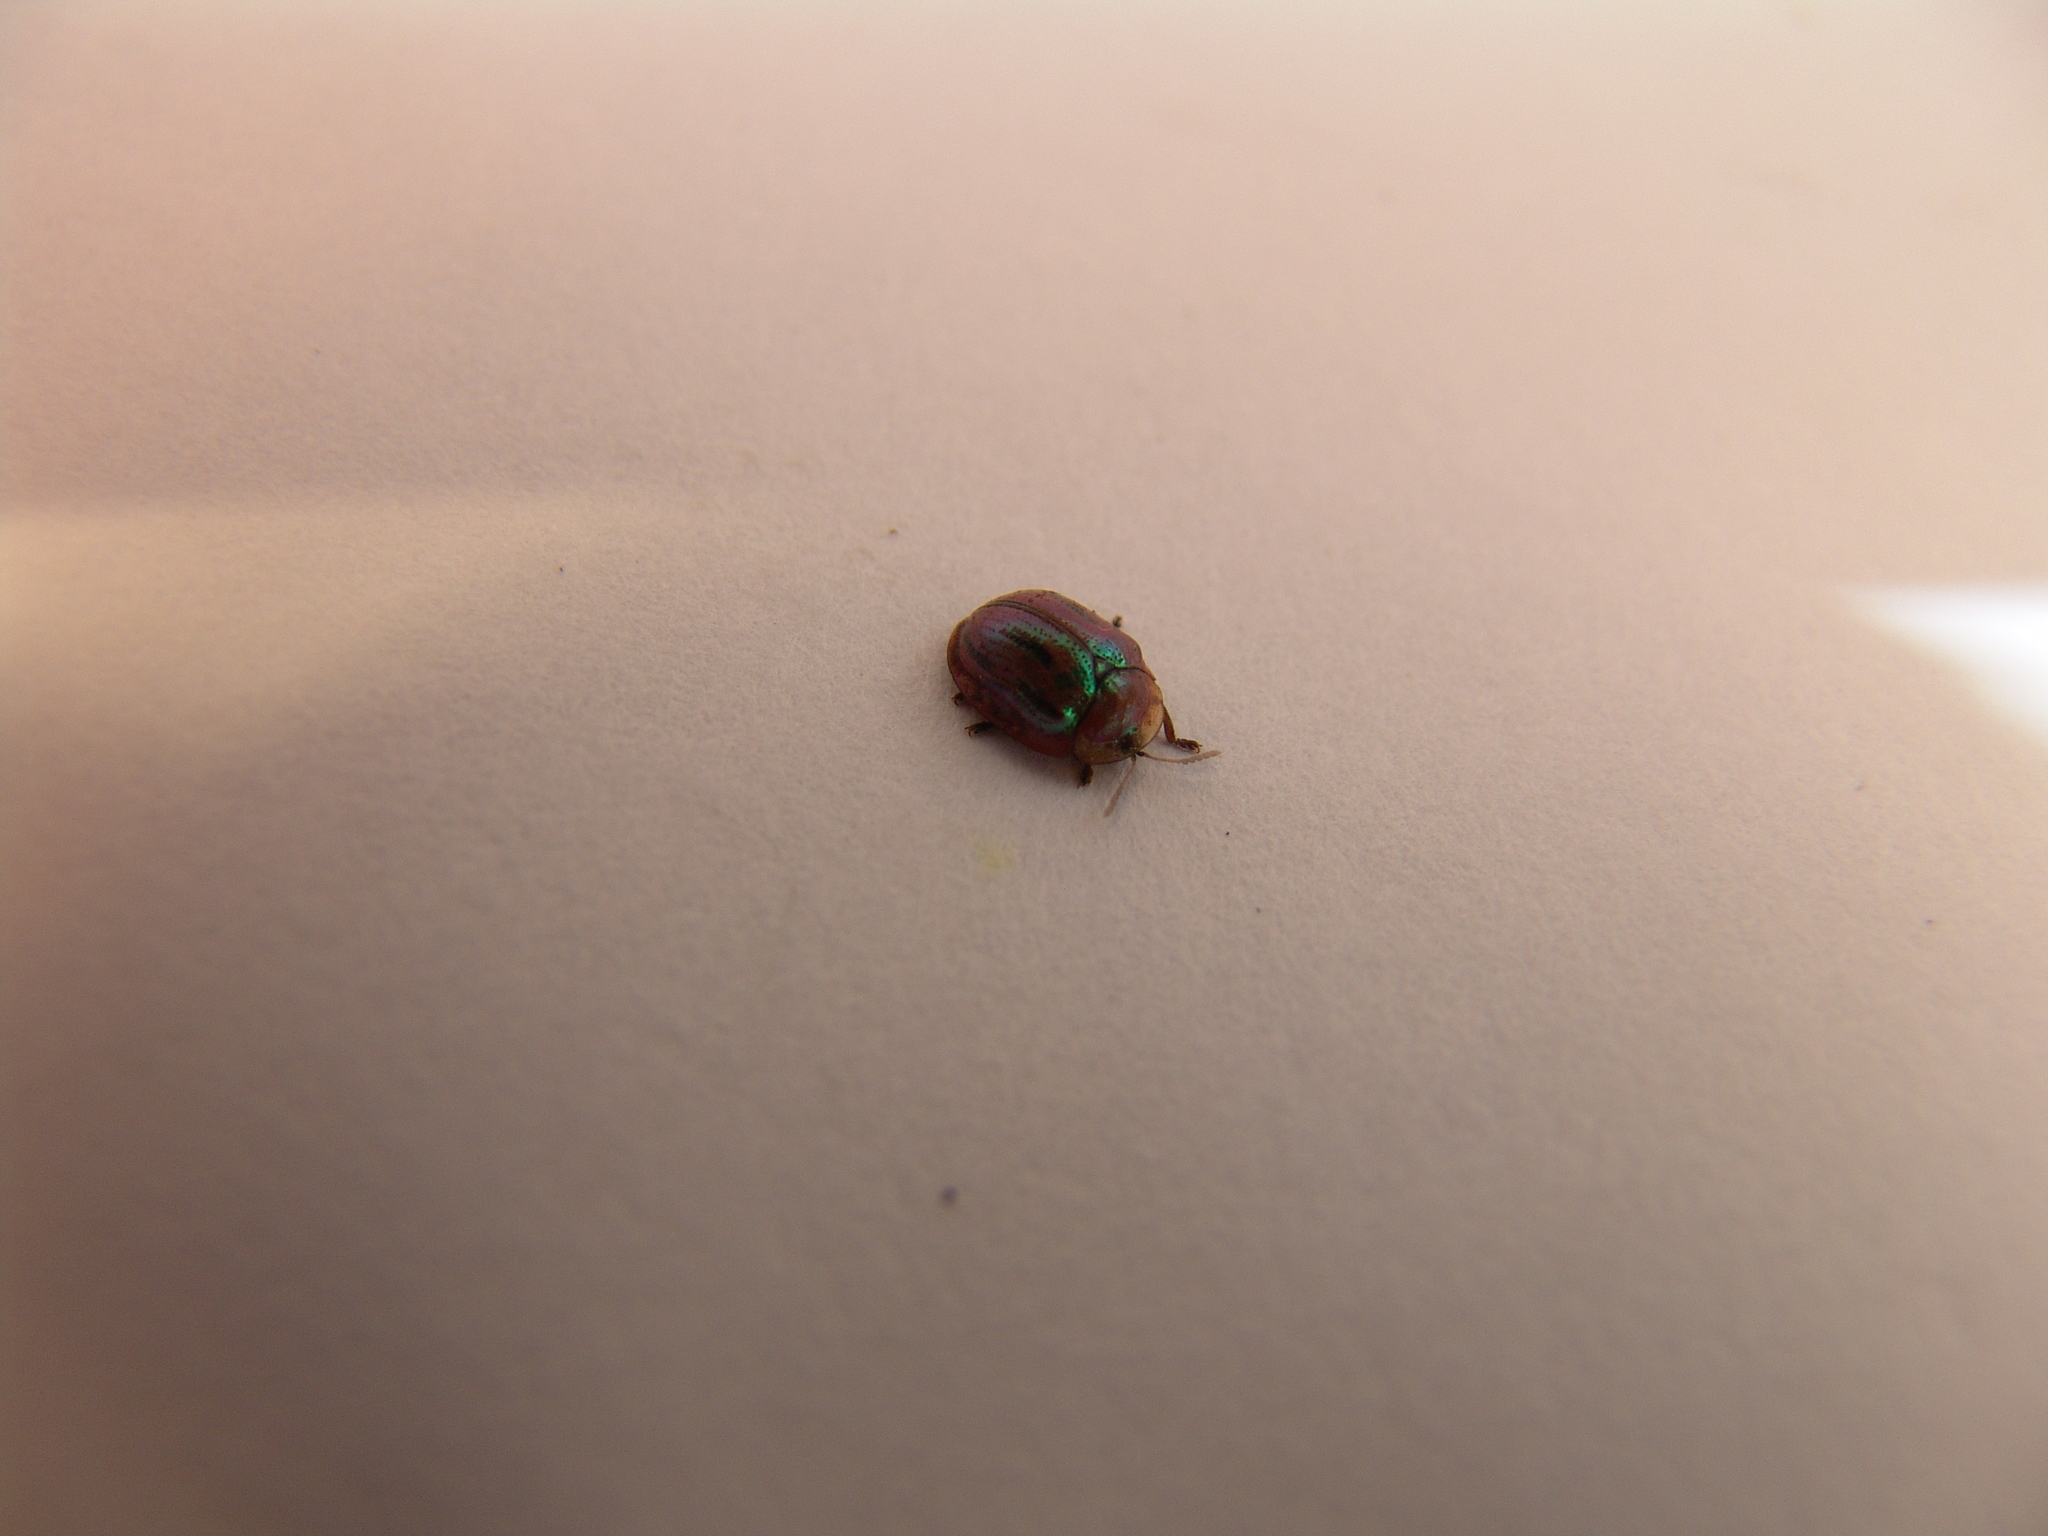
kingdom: Animalia
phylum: Arthropoda
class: Insecta
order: Coleoptera
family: Chrysomelidae
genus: Jonthonota
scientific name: Jonthonota mexicana
